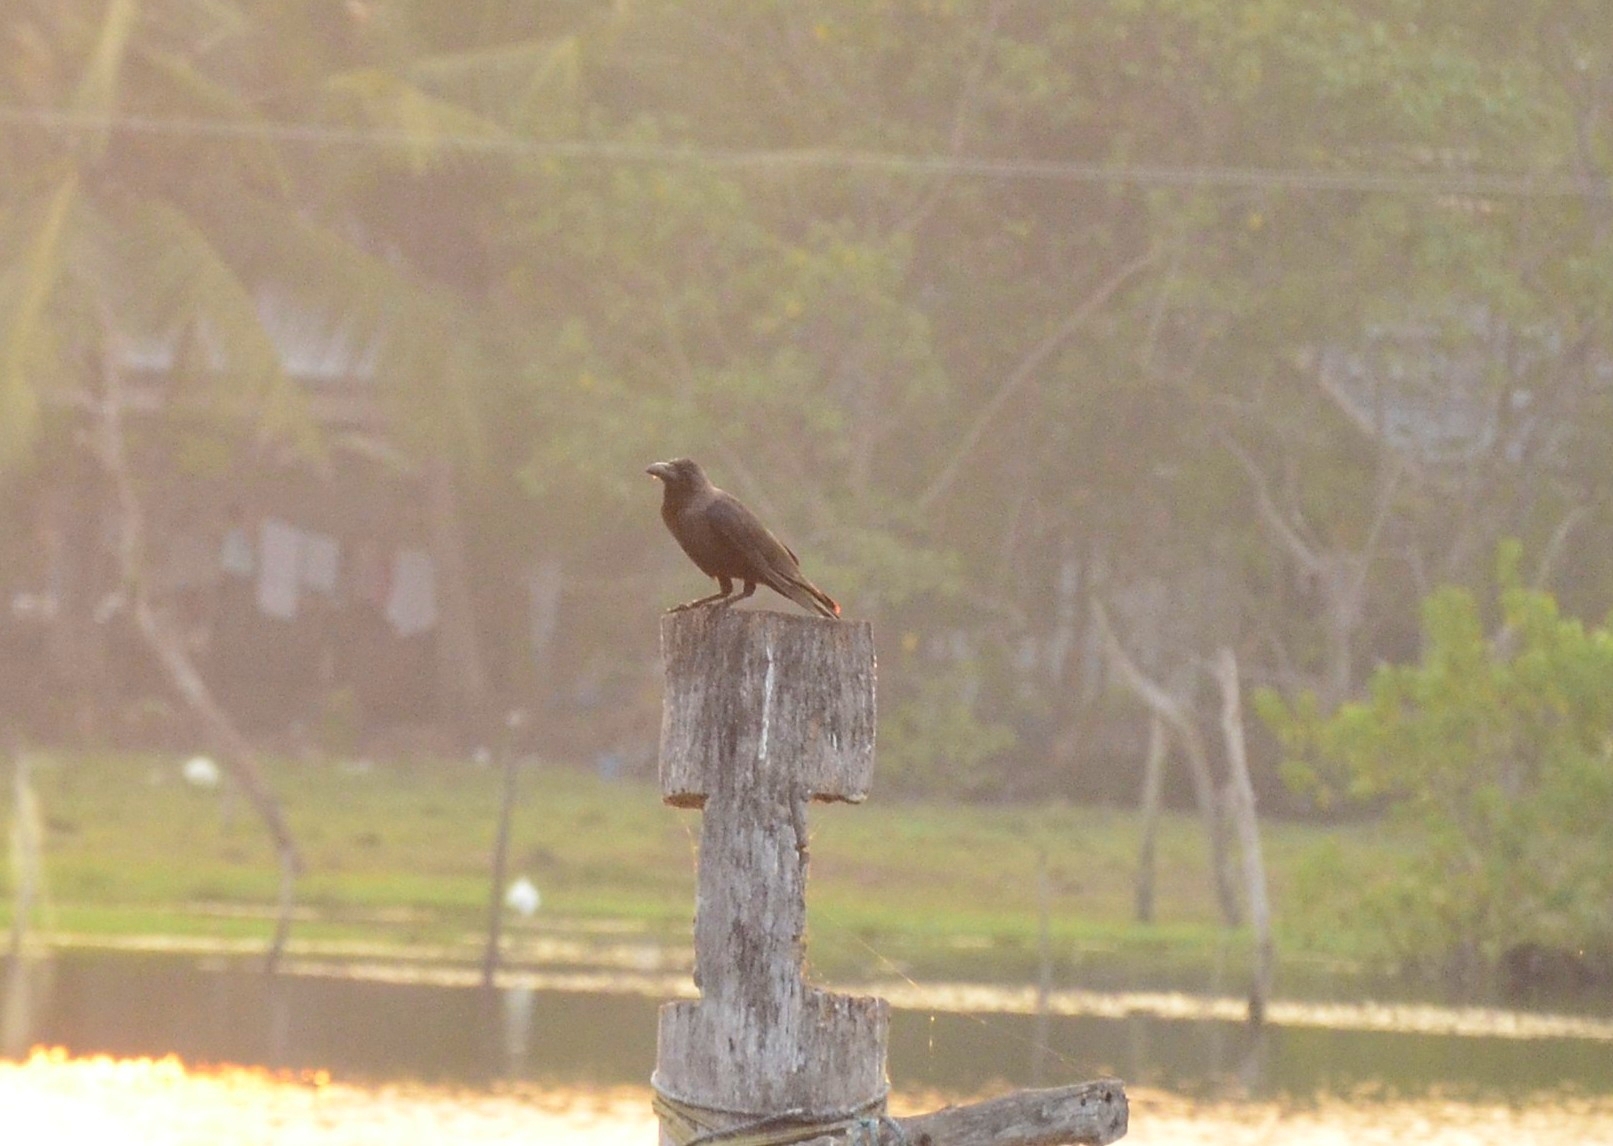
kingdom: Animalia
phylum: Chordata
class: Aves
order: Passeriformes
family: Corvidae
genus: Corvus
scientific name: Corvus splendens
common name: House crow
